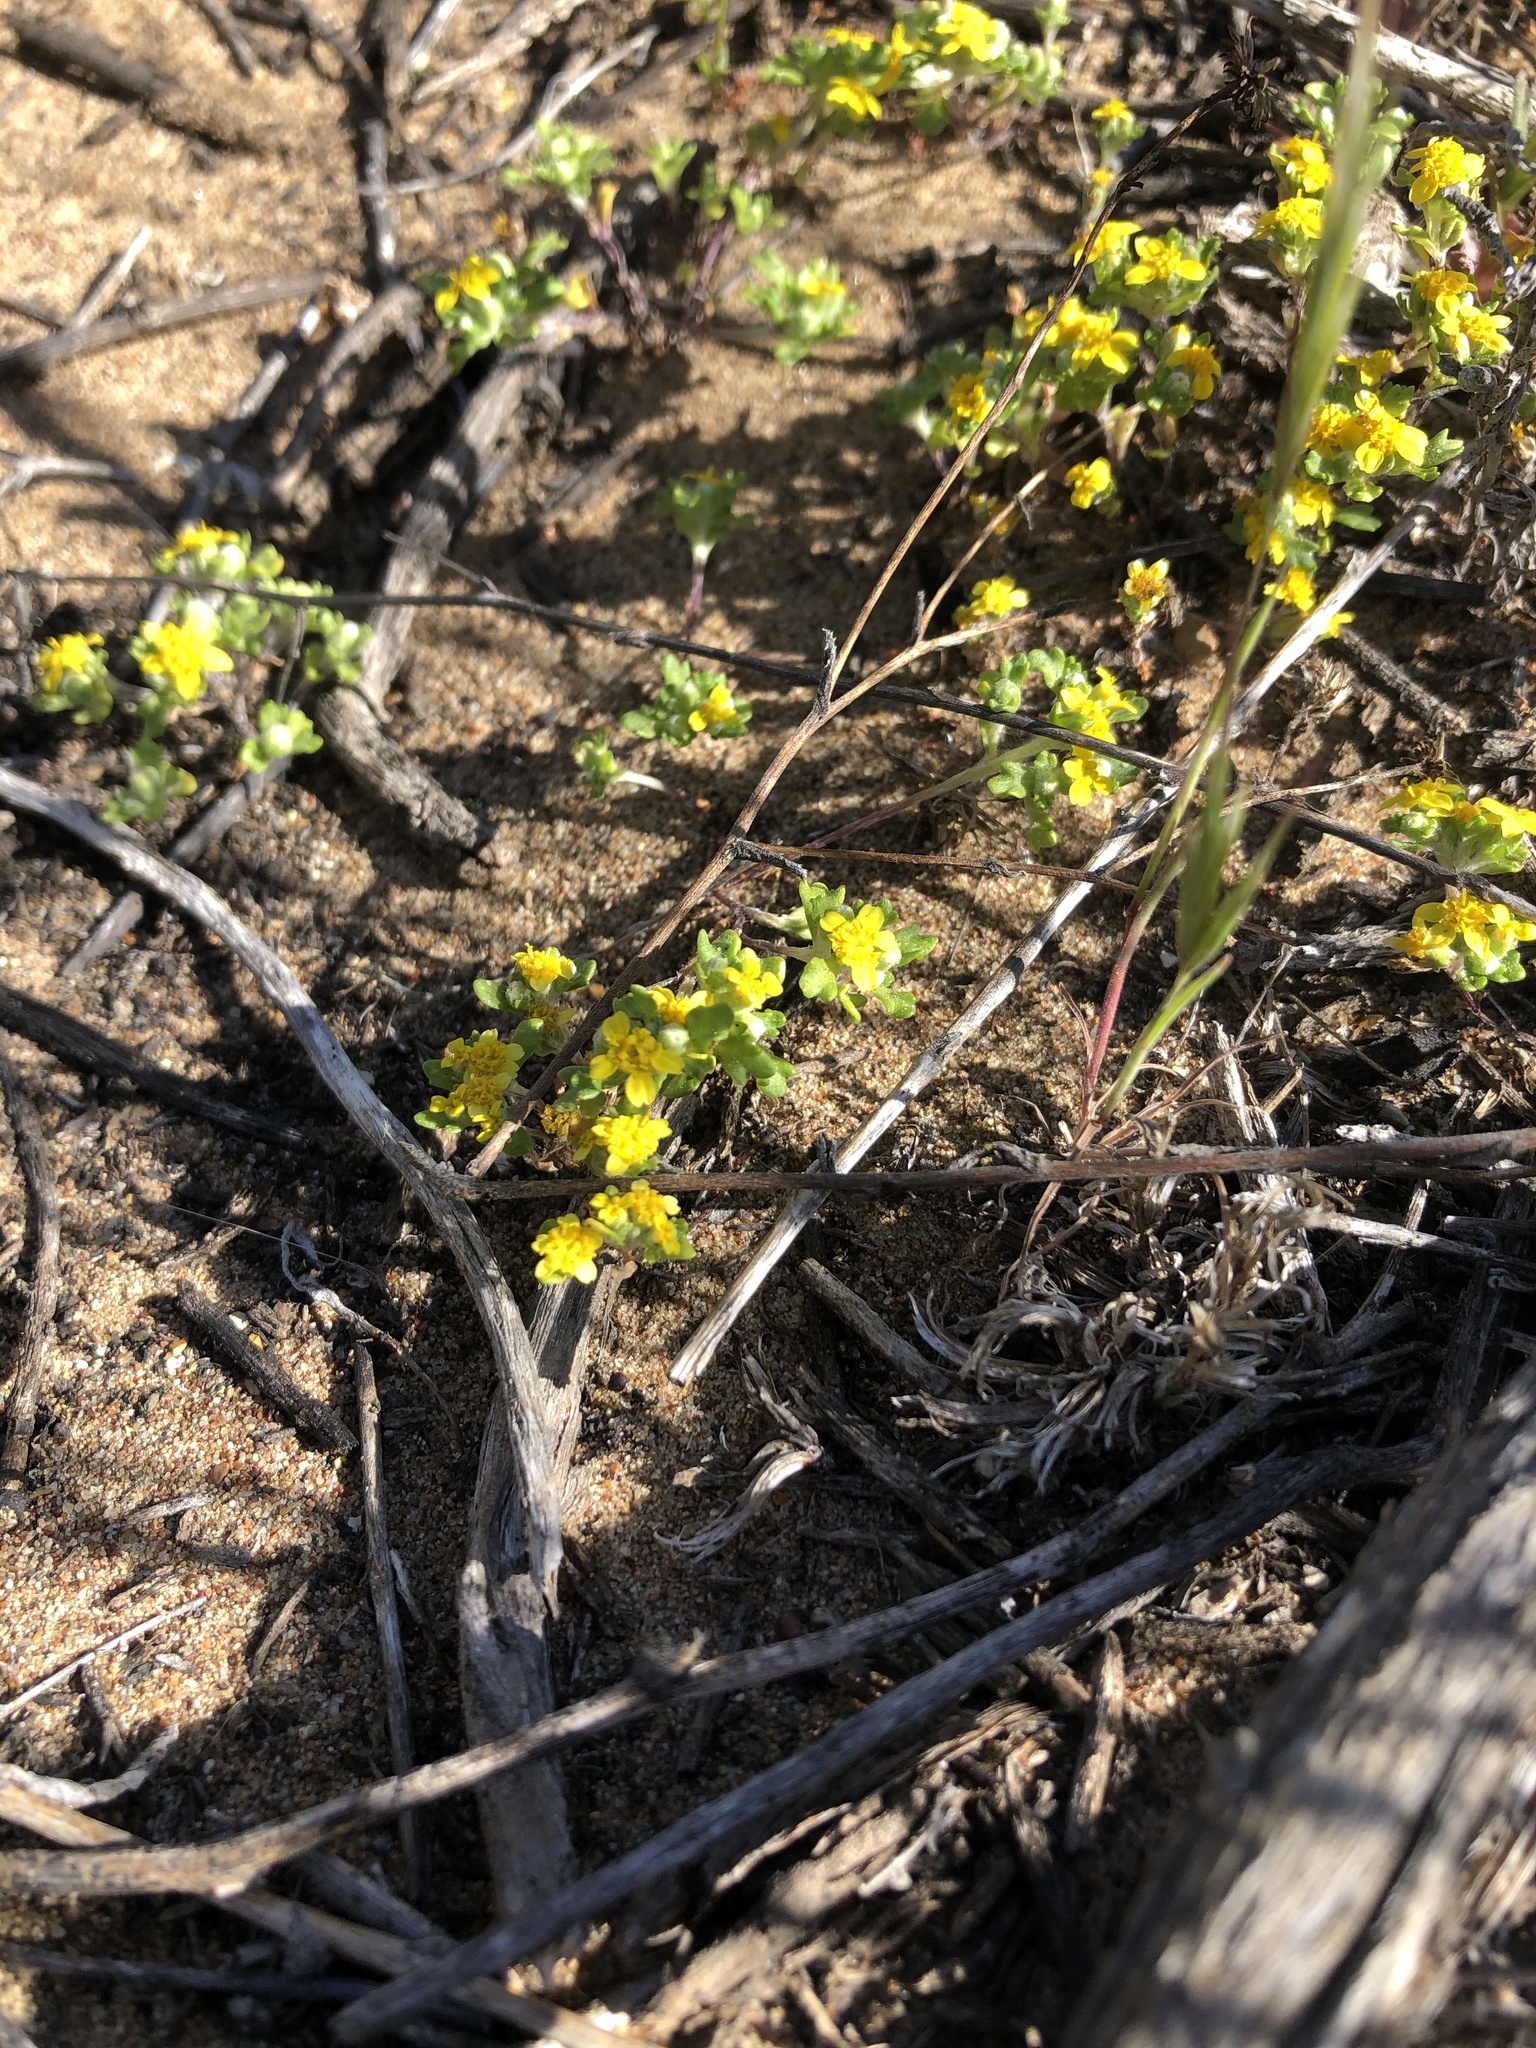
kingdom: Plantae
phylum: Tracheophyta
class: Magnoliopsida
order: Asterales
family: Asteraceae
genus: Eriophyllum
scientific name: Eriophyllum multicaule
